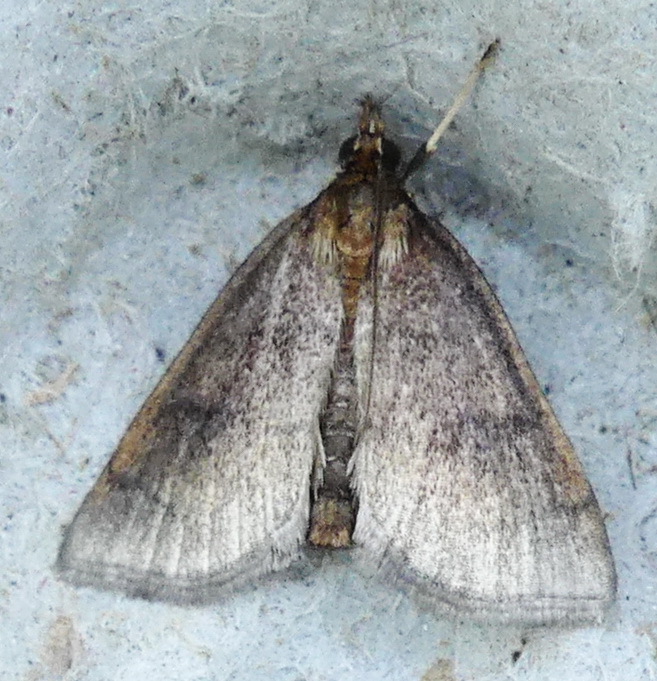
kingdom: Animalia
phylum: Arthropoda
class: Insecta
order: Lepidoptera
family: Crambidae
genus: Fumibotys
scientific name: Fumibotys fumalis
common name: Mint root borer moth
